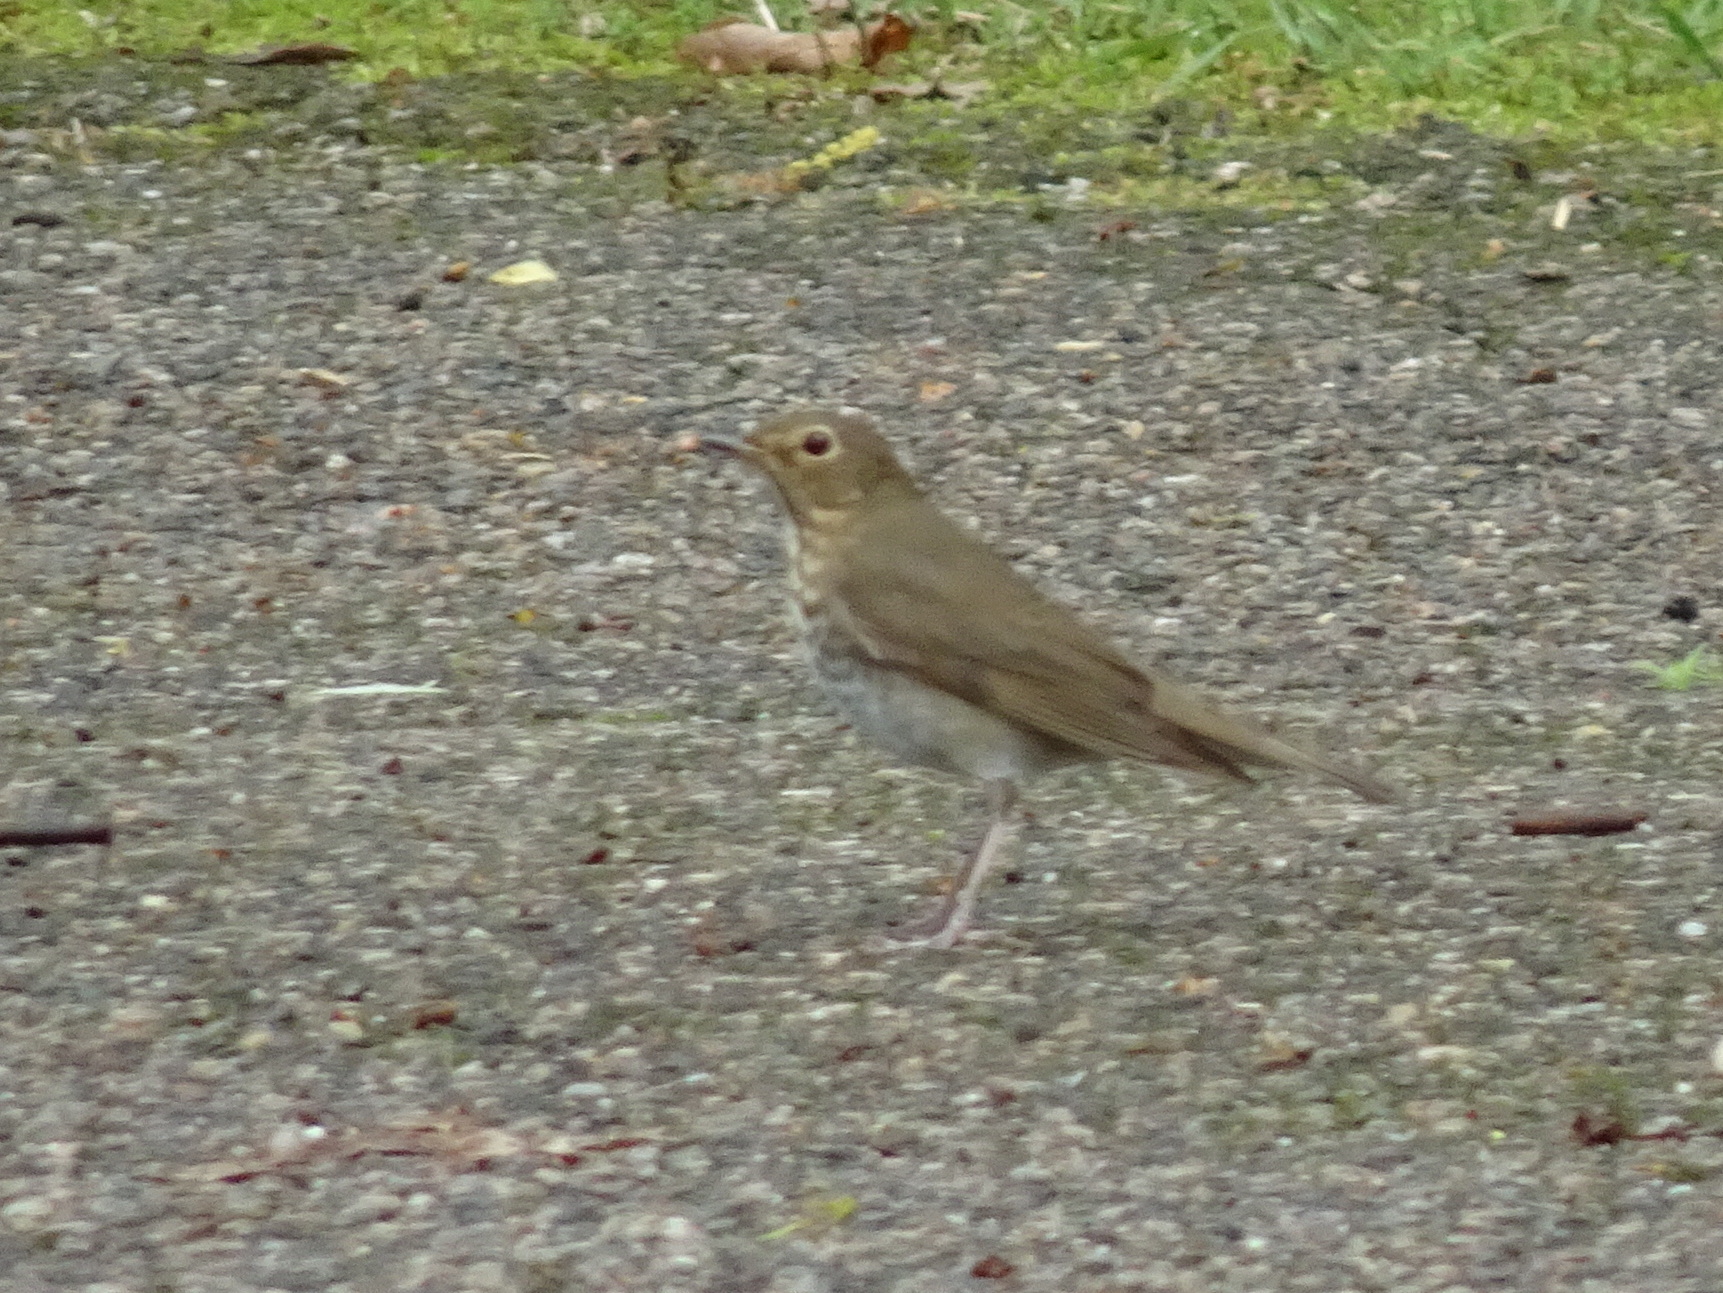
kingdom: Animalia
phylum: Chordata
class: Aves
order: Passeriformes
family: Turdidae
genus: Catharus
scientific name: Catharus ustulatus
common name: Swainson's thrush
